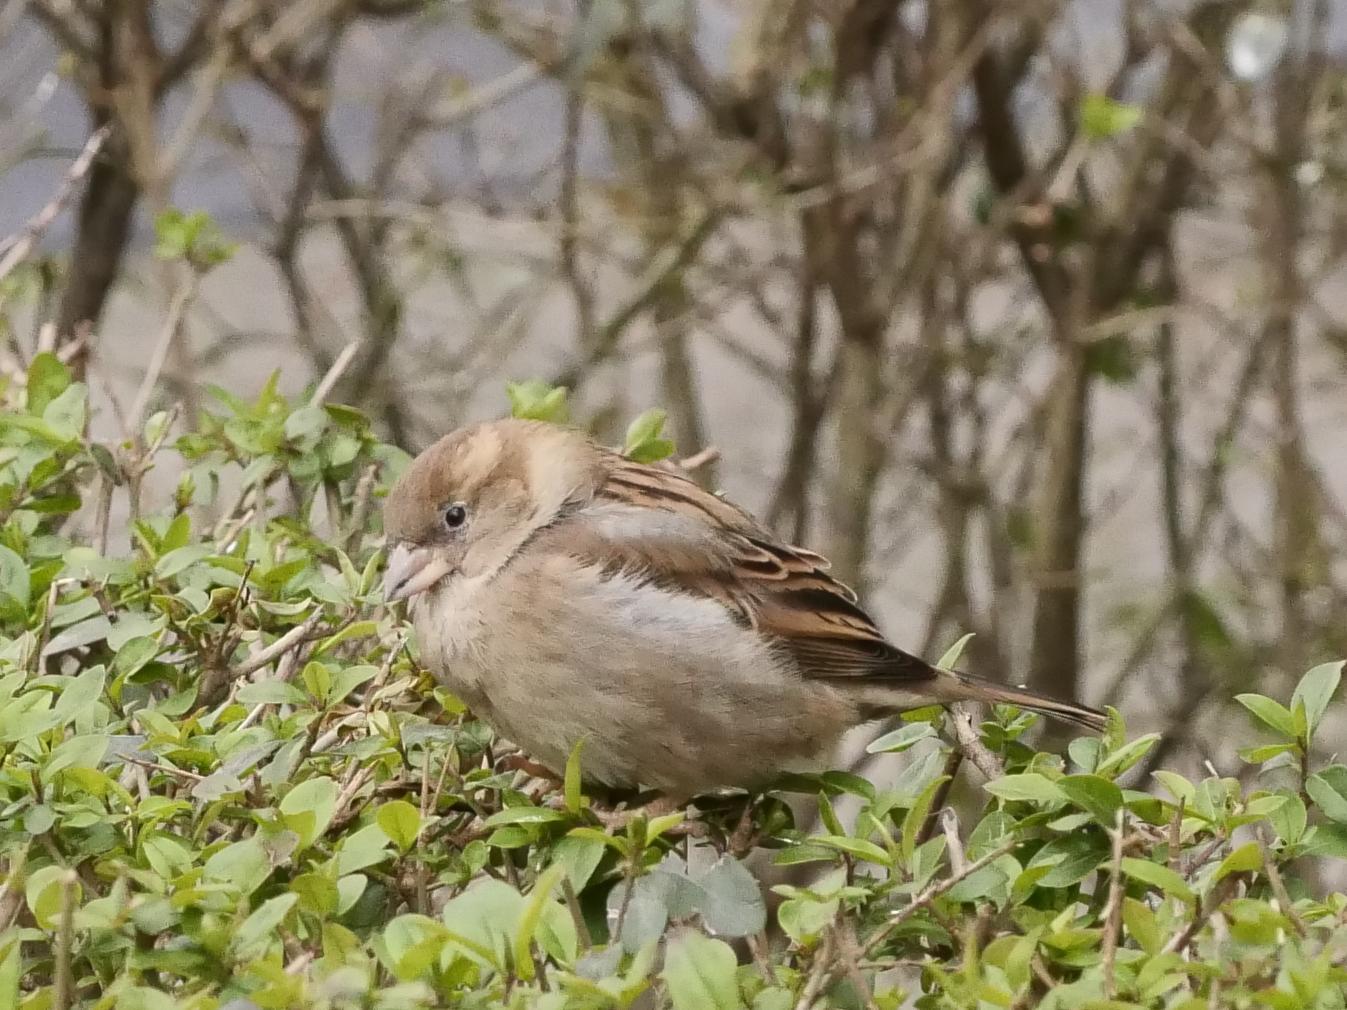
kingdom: Animalia
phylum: Chordata
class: Aves
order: Passeriformes
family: Passeridae
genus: Passer
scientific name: Passer domesticus
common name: House sparrow
